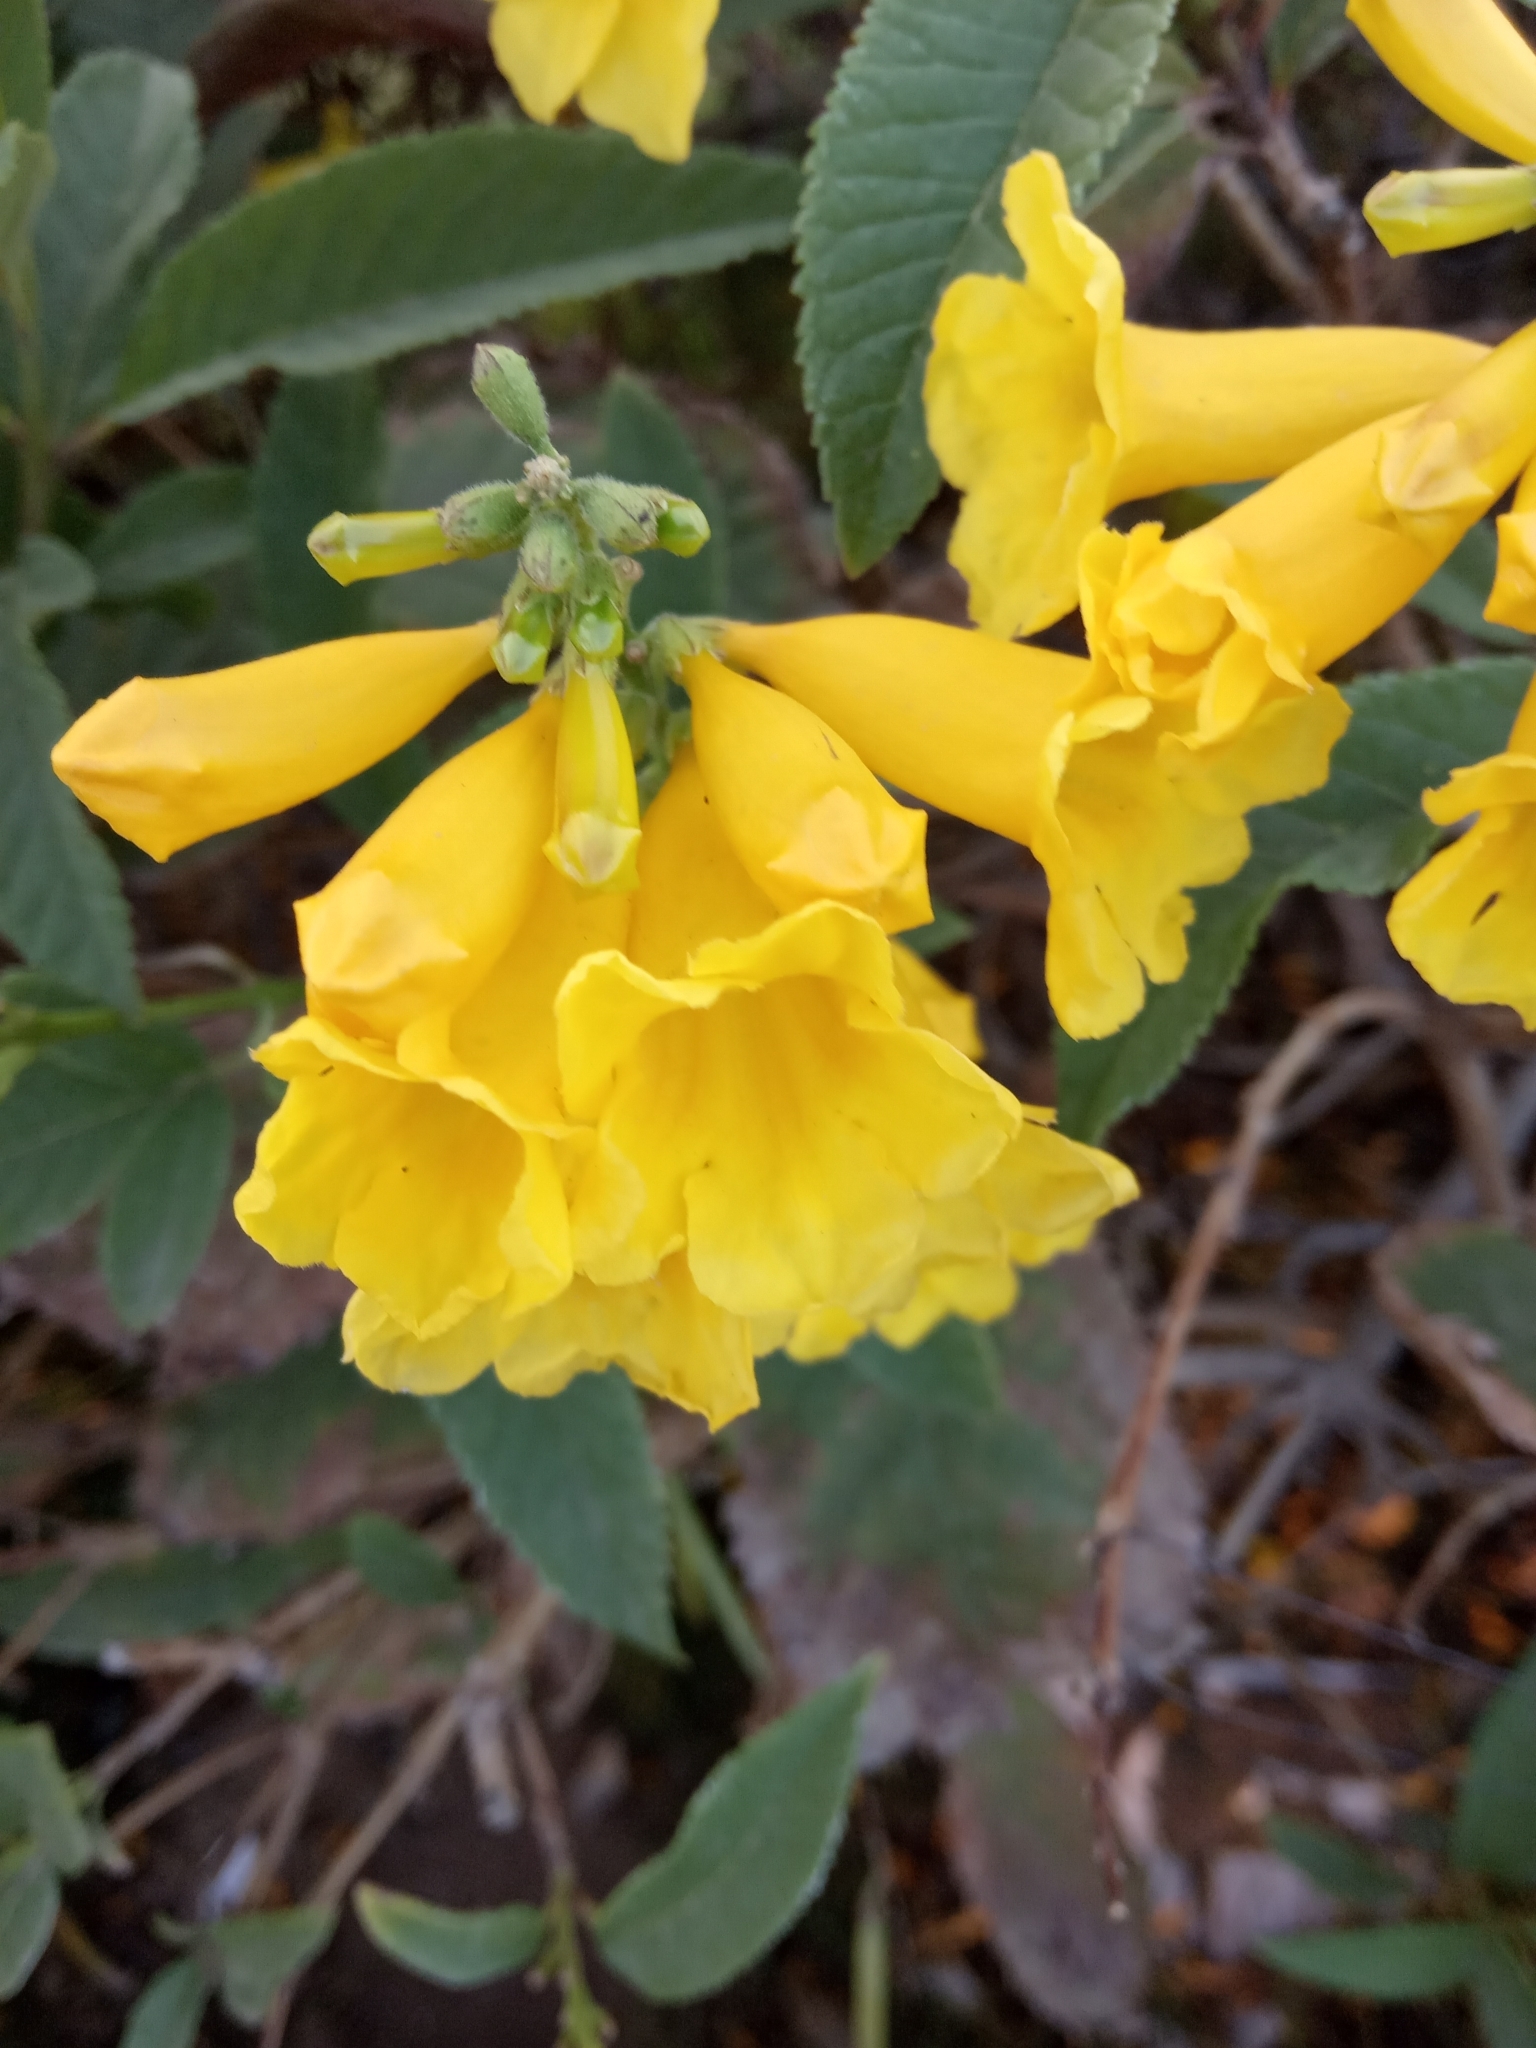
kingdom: Plantae
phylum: Tracheophyta
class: Magnoliopsida
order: Lamiales
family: Bignoniaceae
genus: Tecoma
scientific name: Tecoma stans
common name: Yellow trumpetbush
